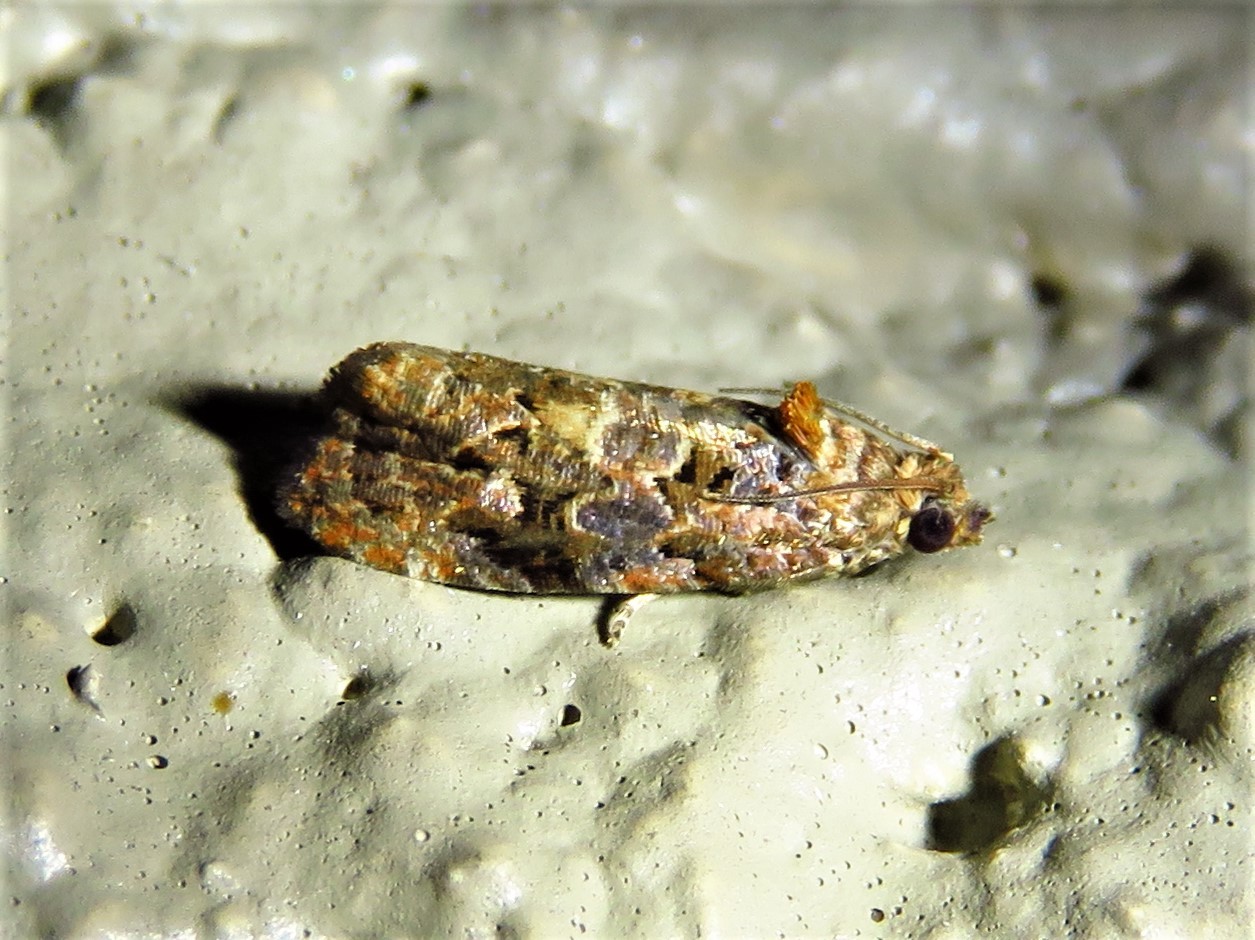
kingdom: Animalia
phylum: Arthropoda
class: Insecta
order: Lepidoptera
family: Tortricidae
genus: Endothenia
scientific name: Endothenia hebesana
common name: Verbena bud moth
